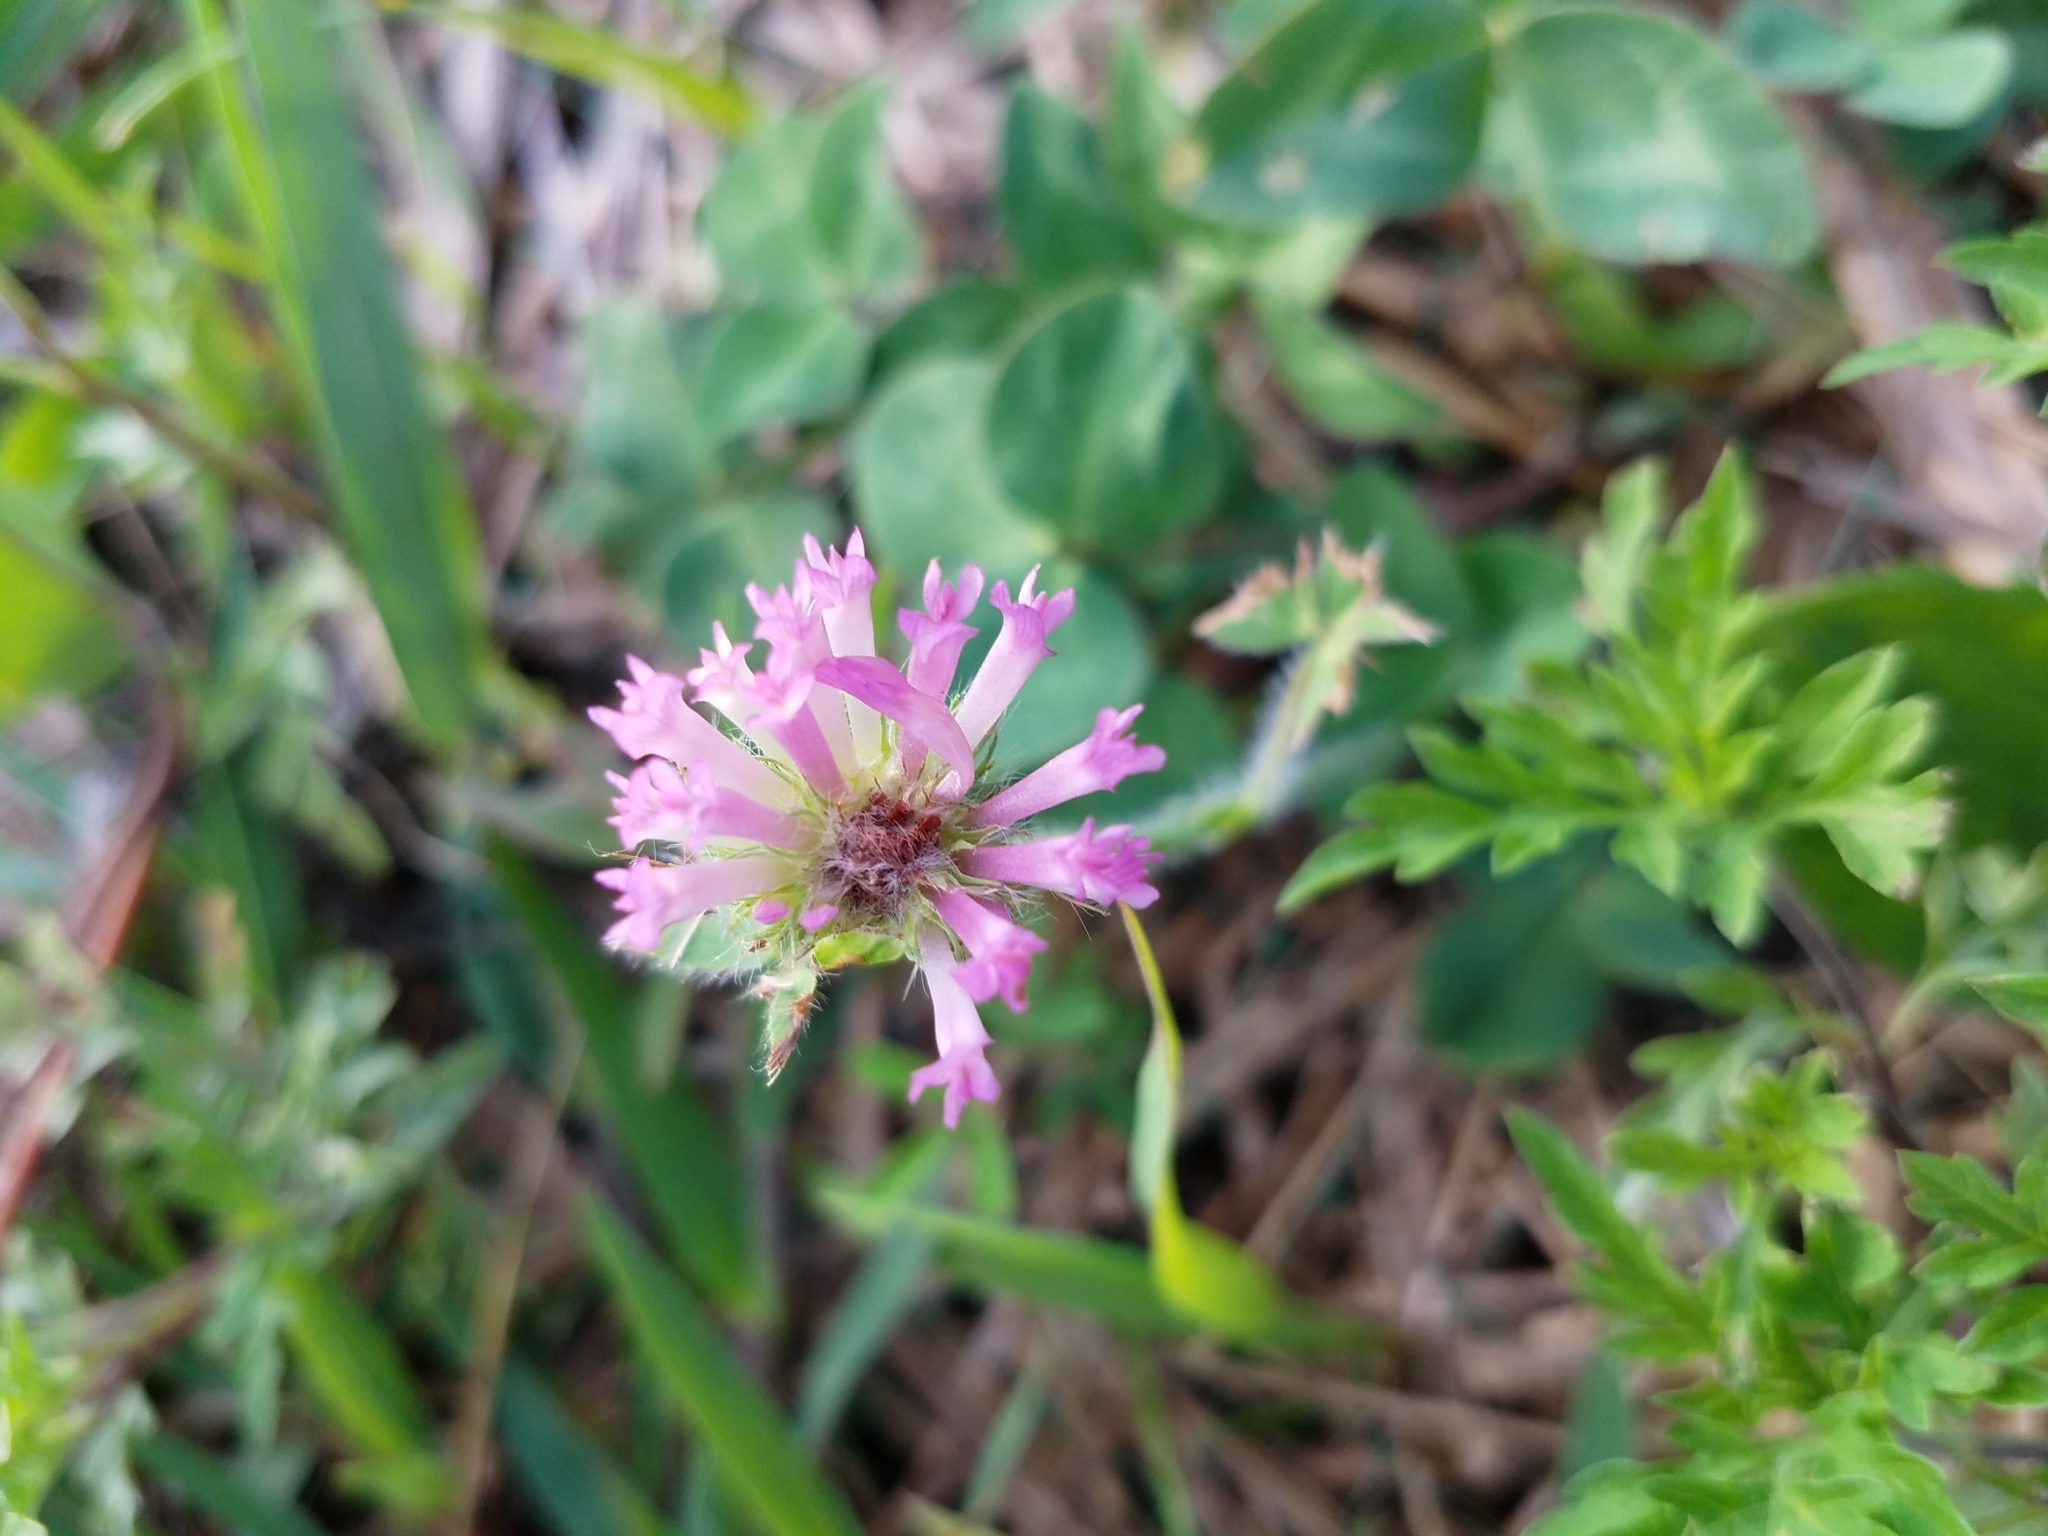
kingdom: Plantae
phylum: Tracheophyta
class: Magnoliopsida
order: Fabales
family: Fabaceae
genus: Trifolium
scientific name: Trifolium pratense
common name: Red clover
